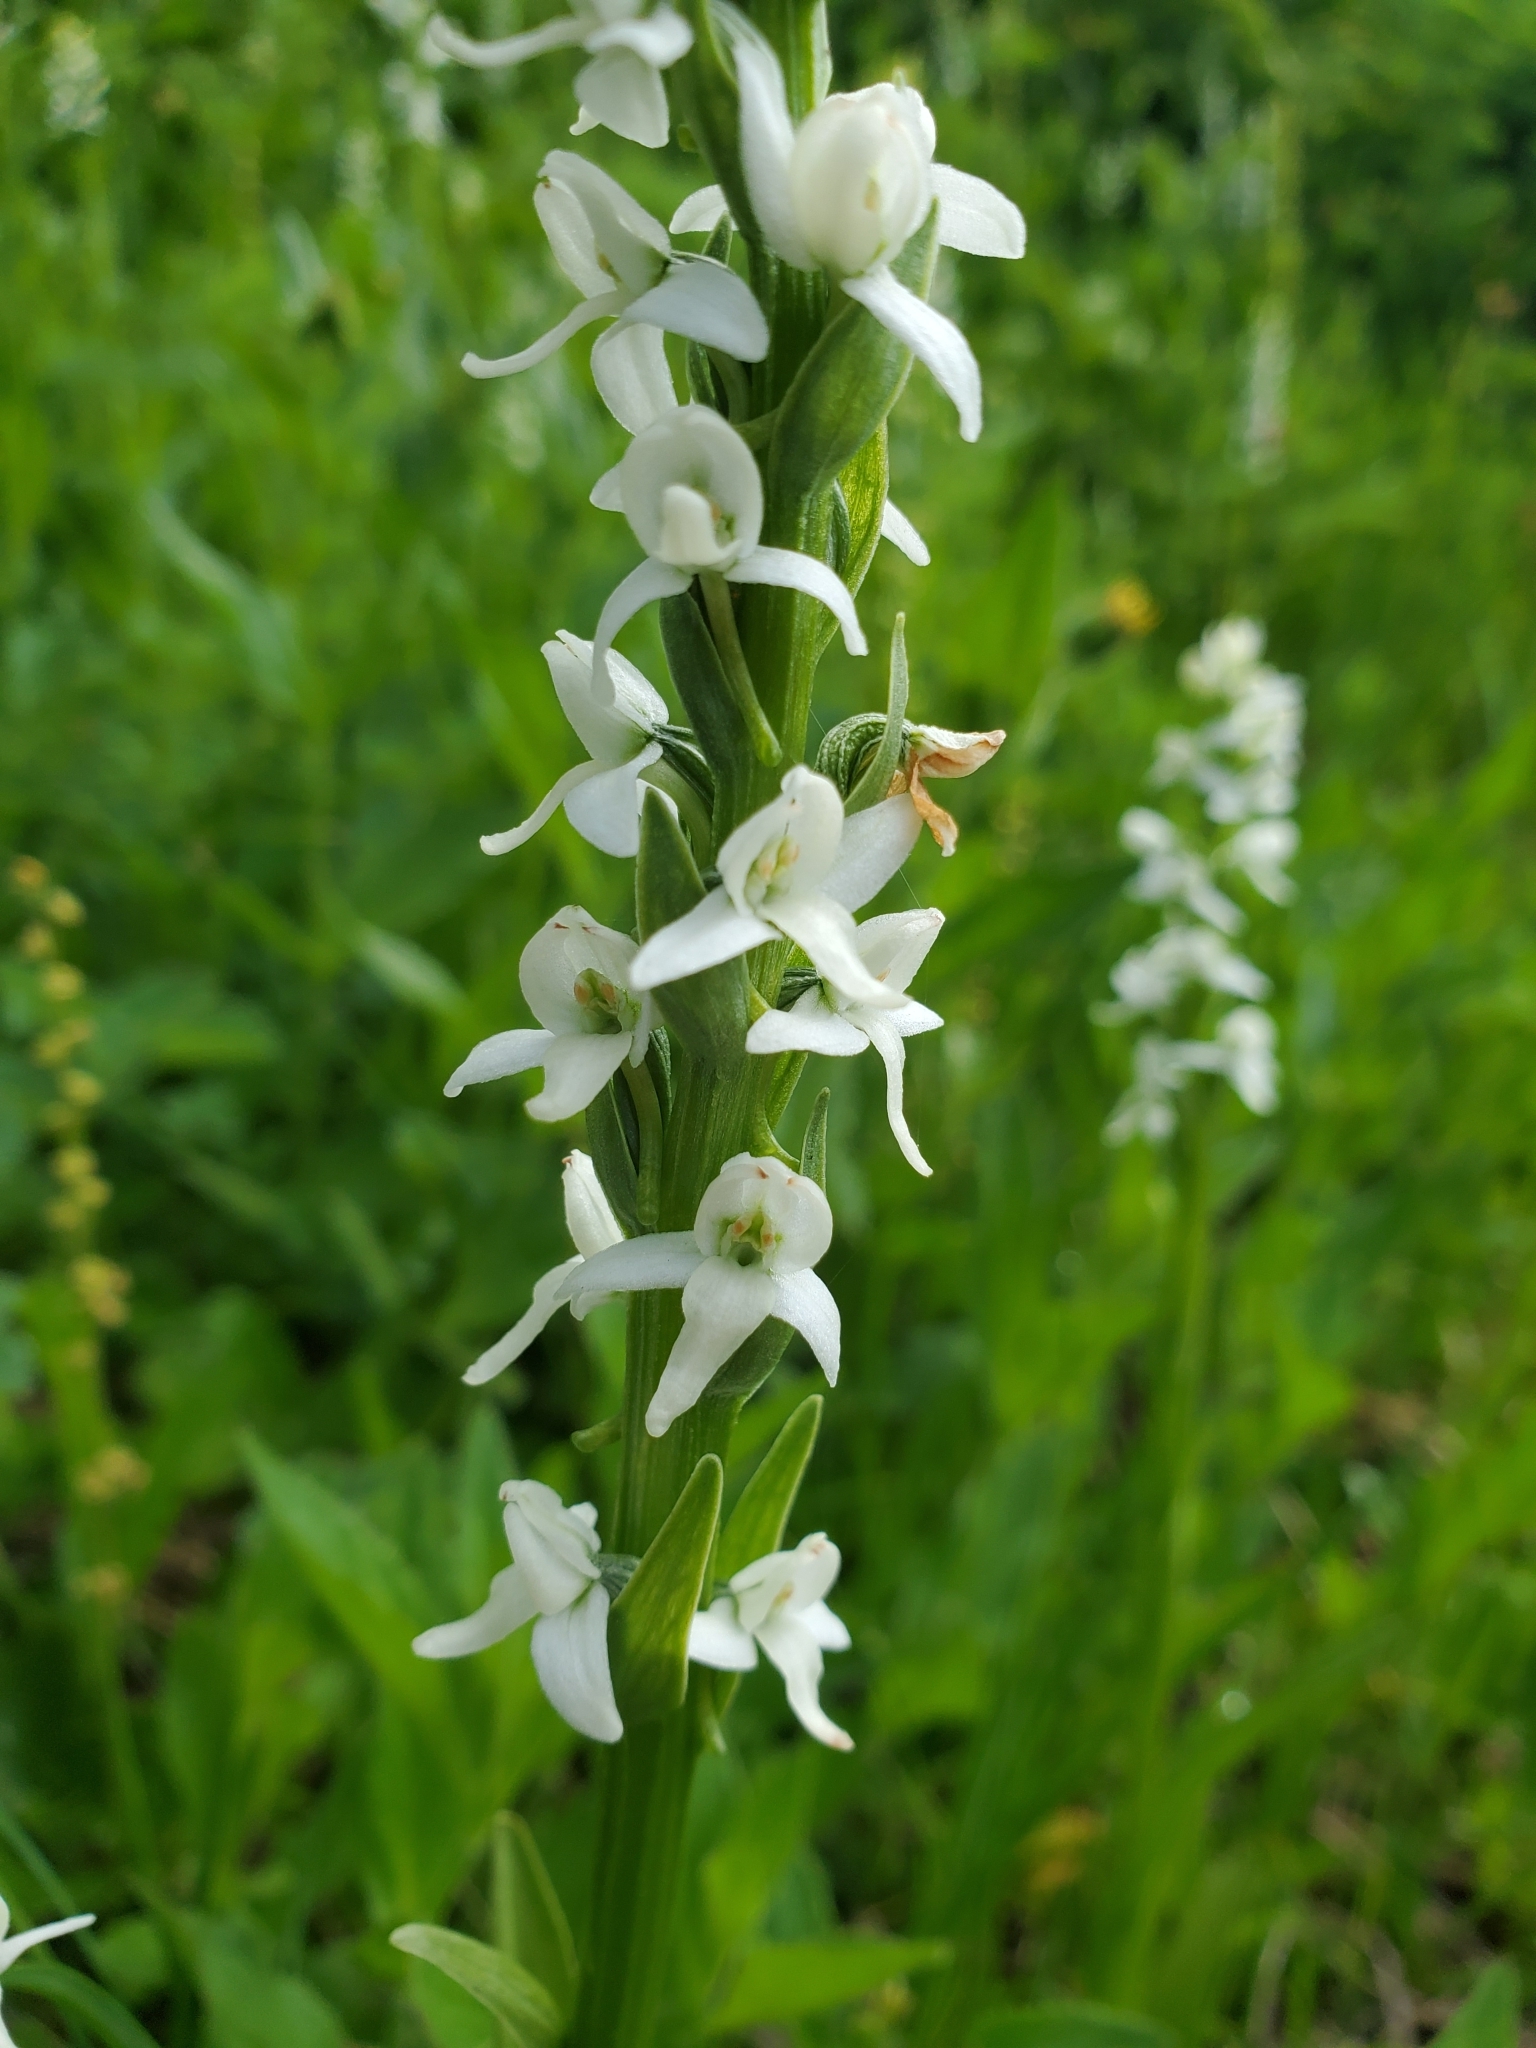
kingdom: Plantae
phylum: Tracheophyta
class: Liliopsida
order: Asparagales
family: Orchidaceae
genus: Platanthera
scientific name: Platanthera dilatata
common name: Bog candles
